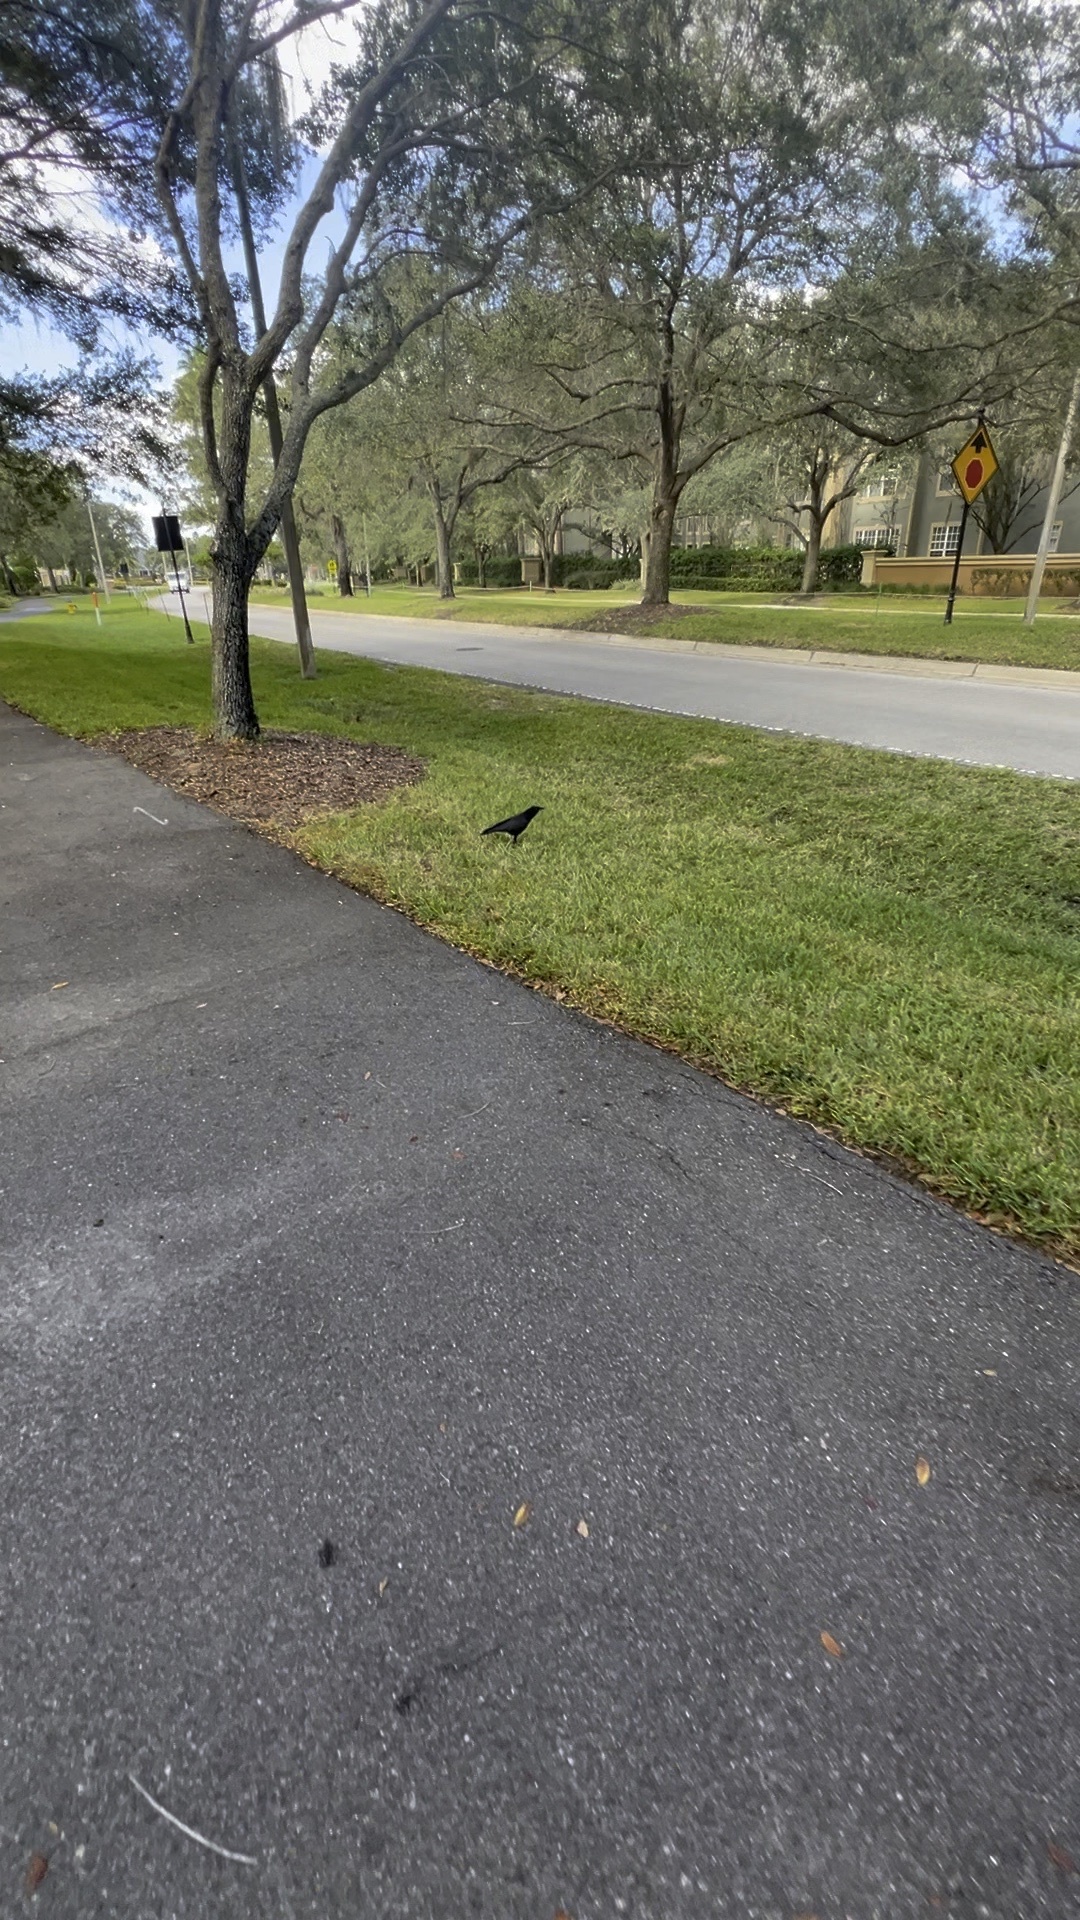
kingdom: Animalia
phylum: Chordata
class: Aves
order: Passeriformes
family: Corvidae
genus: Corvus
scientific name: Corvus brachyrhynchos
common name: American crow
